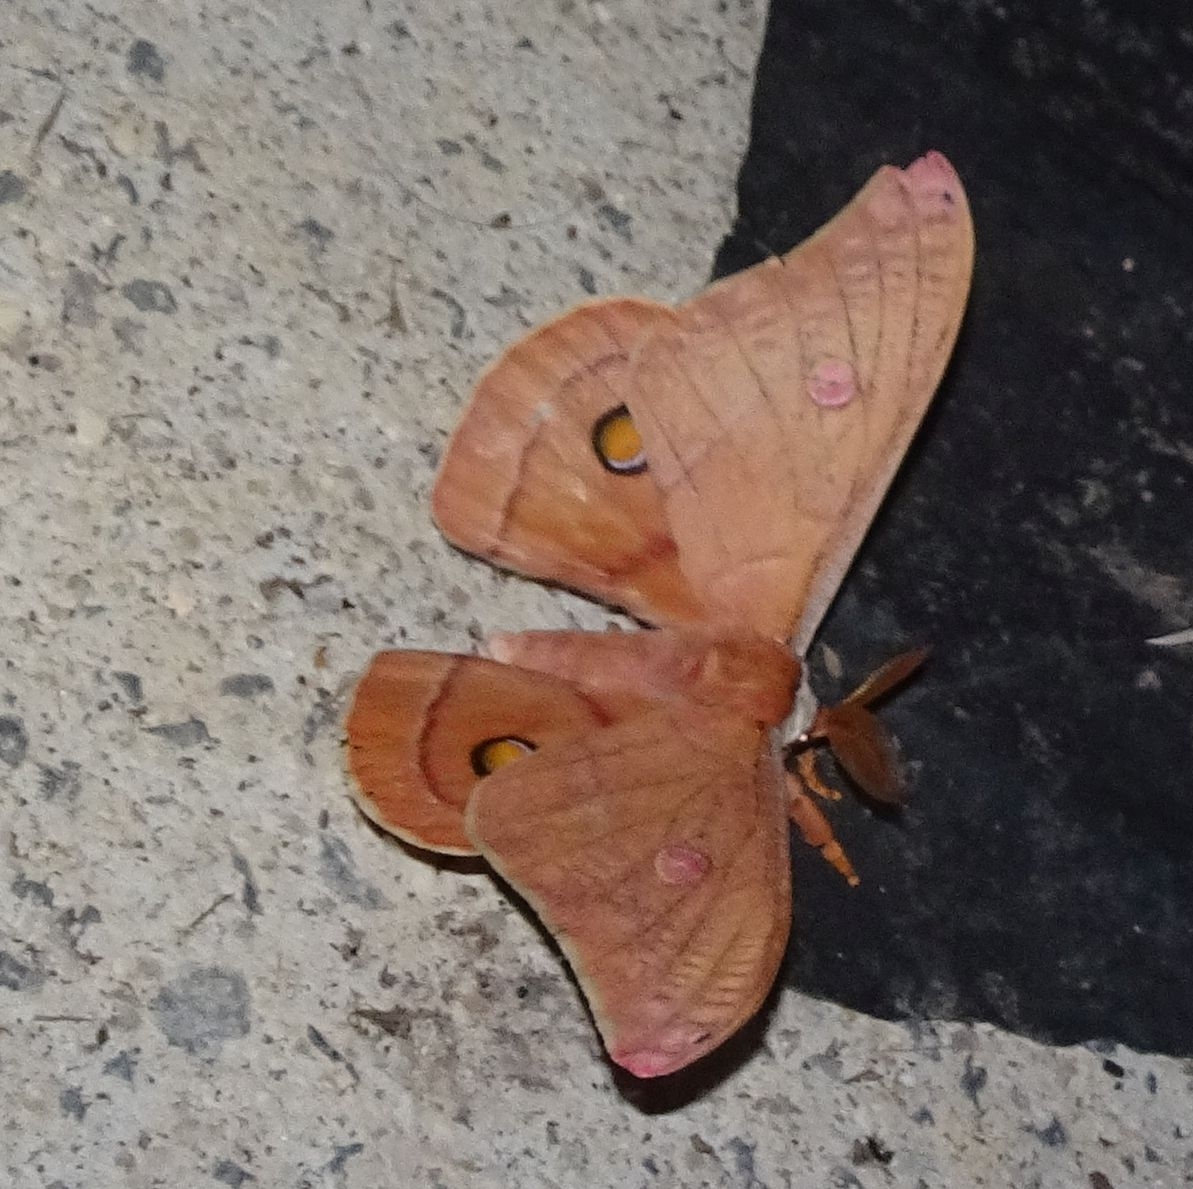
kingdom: Animalia
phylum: Arthropoda
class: Insecta
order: Lepidoptera
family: Saturniidae
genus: Opodiphthera
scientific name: Opodiphthera
